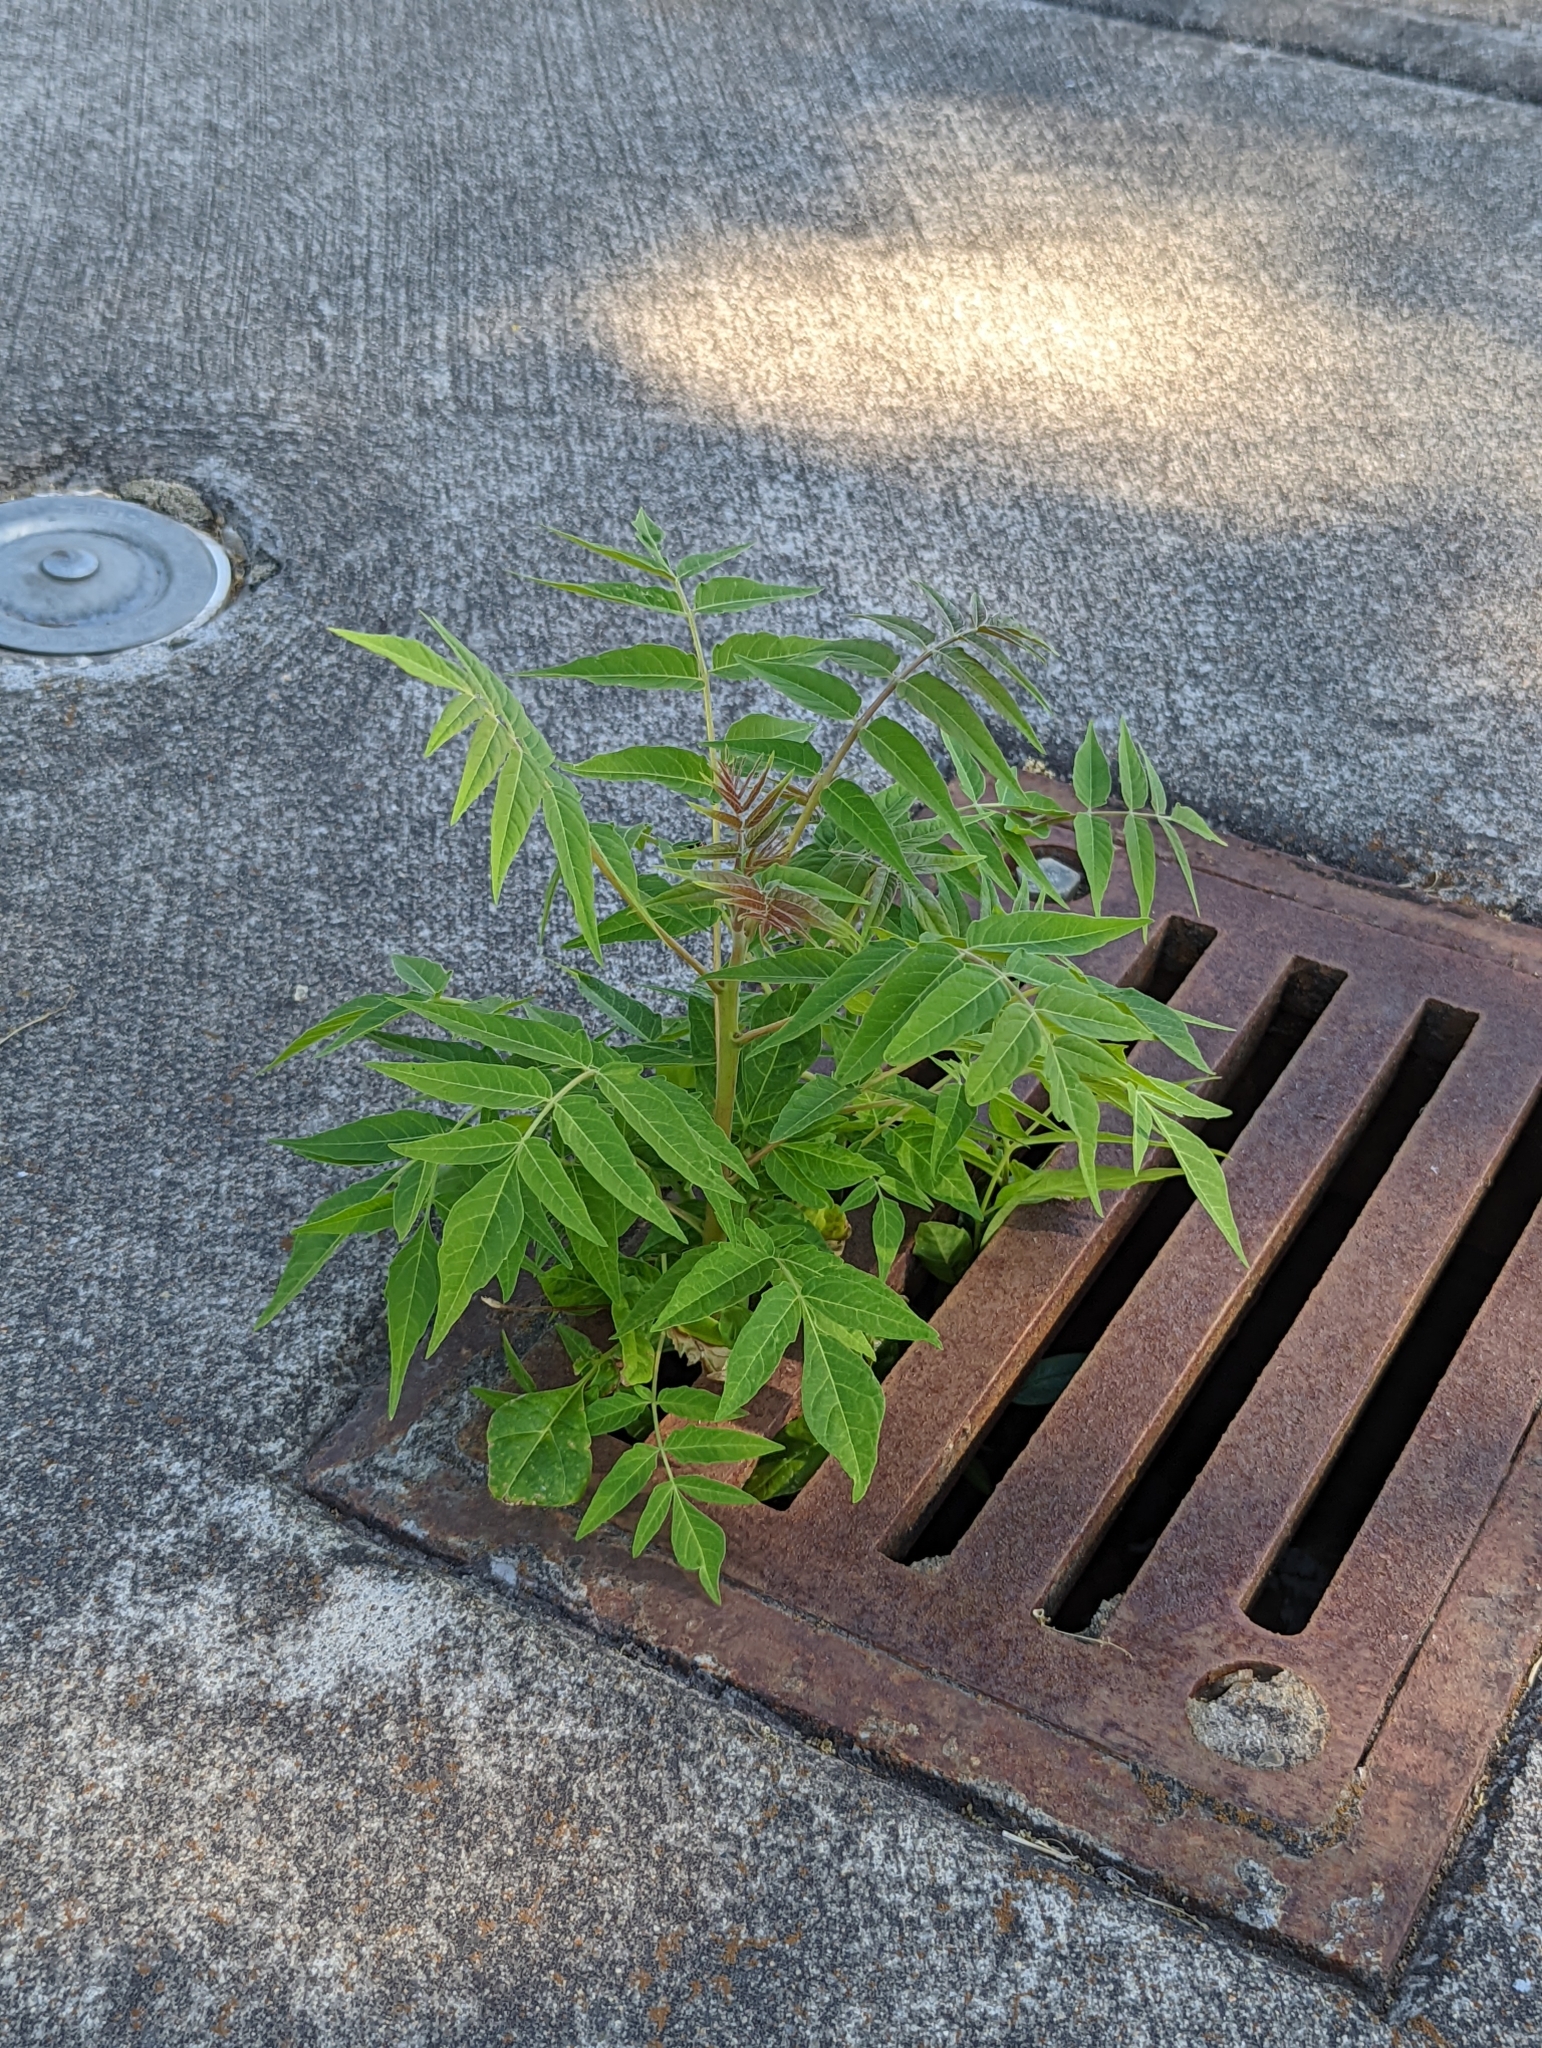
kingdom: Plantae
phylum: Tracheophyta
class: Magnoliopsida
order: Sapindales
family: Simaroubaceae
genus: Ailanthus
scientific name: Ailanthus altissima
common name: Tree-of-heaven
